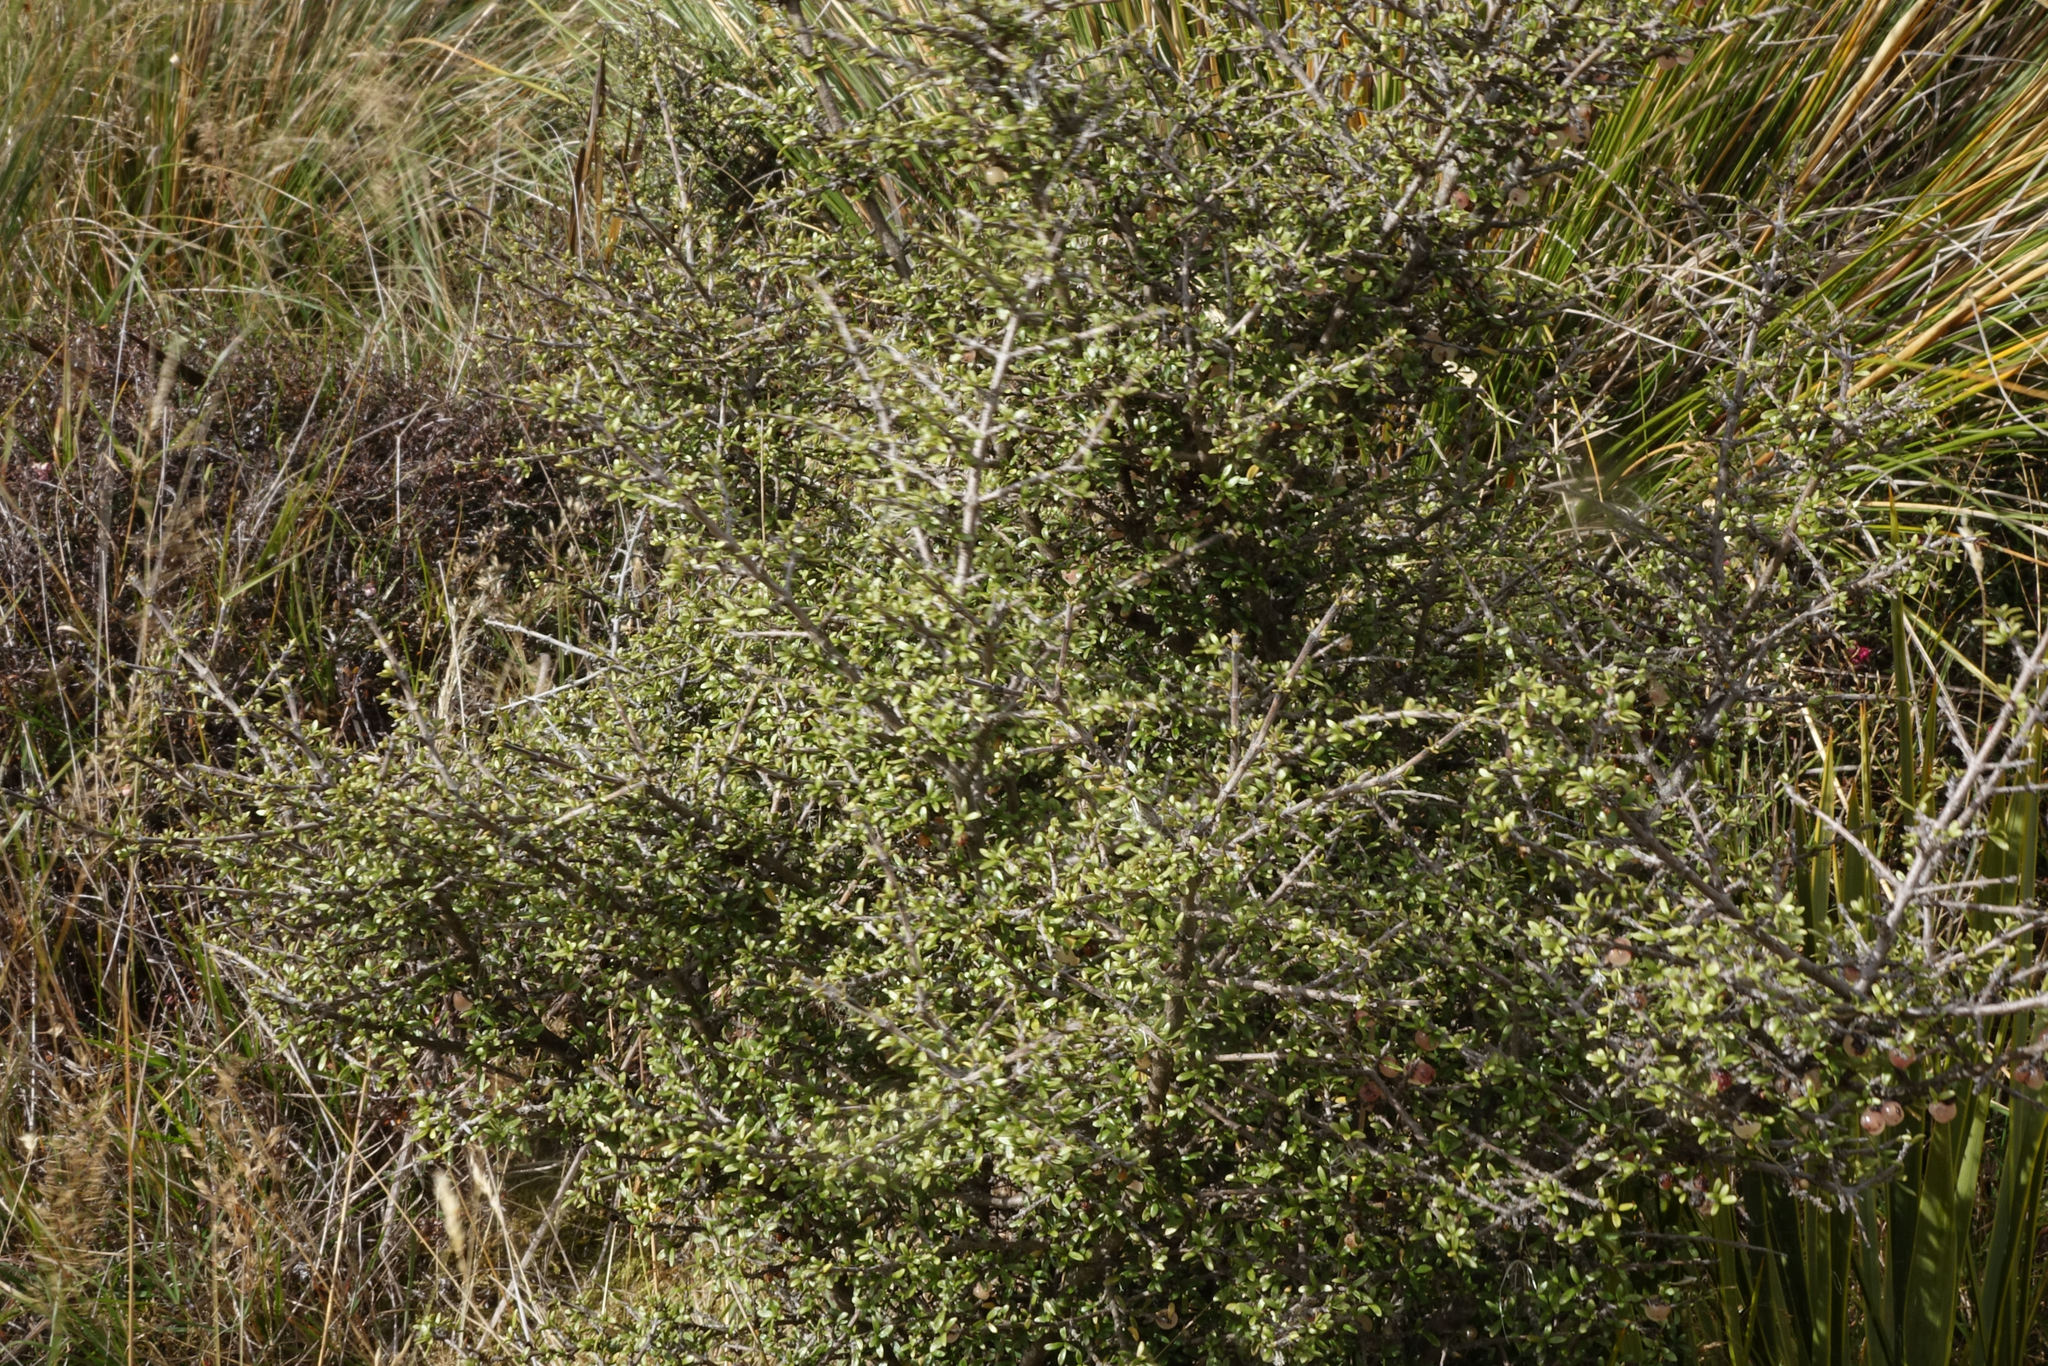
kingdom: Plantae
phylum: Tracheophyta
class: Magnoliopsida
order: Gentianales
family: Rubiaceae
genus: Coprosma
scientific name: Coprosma dumosa
